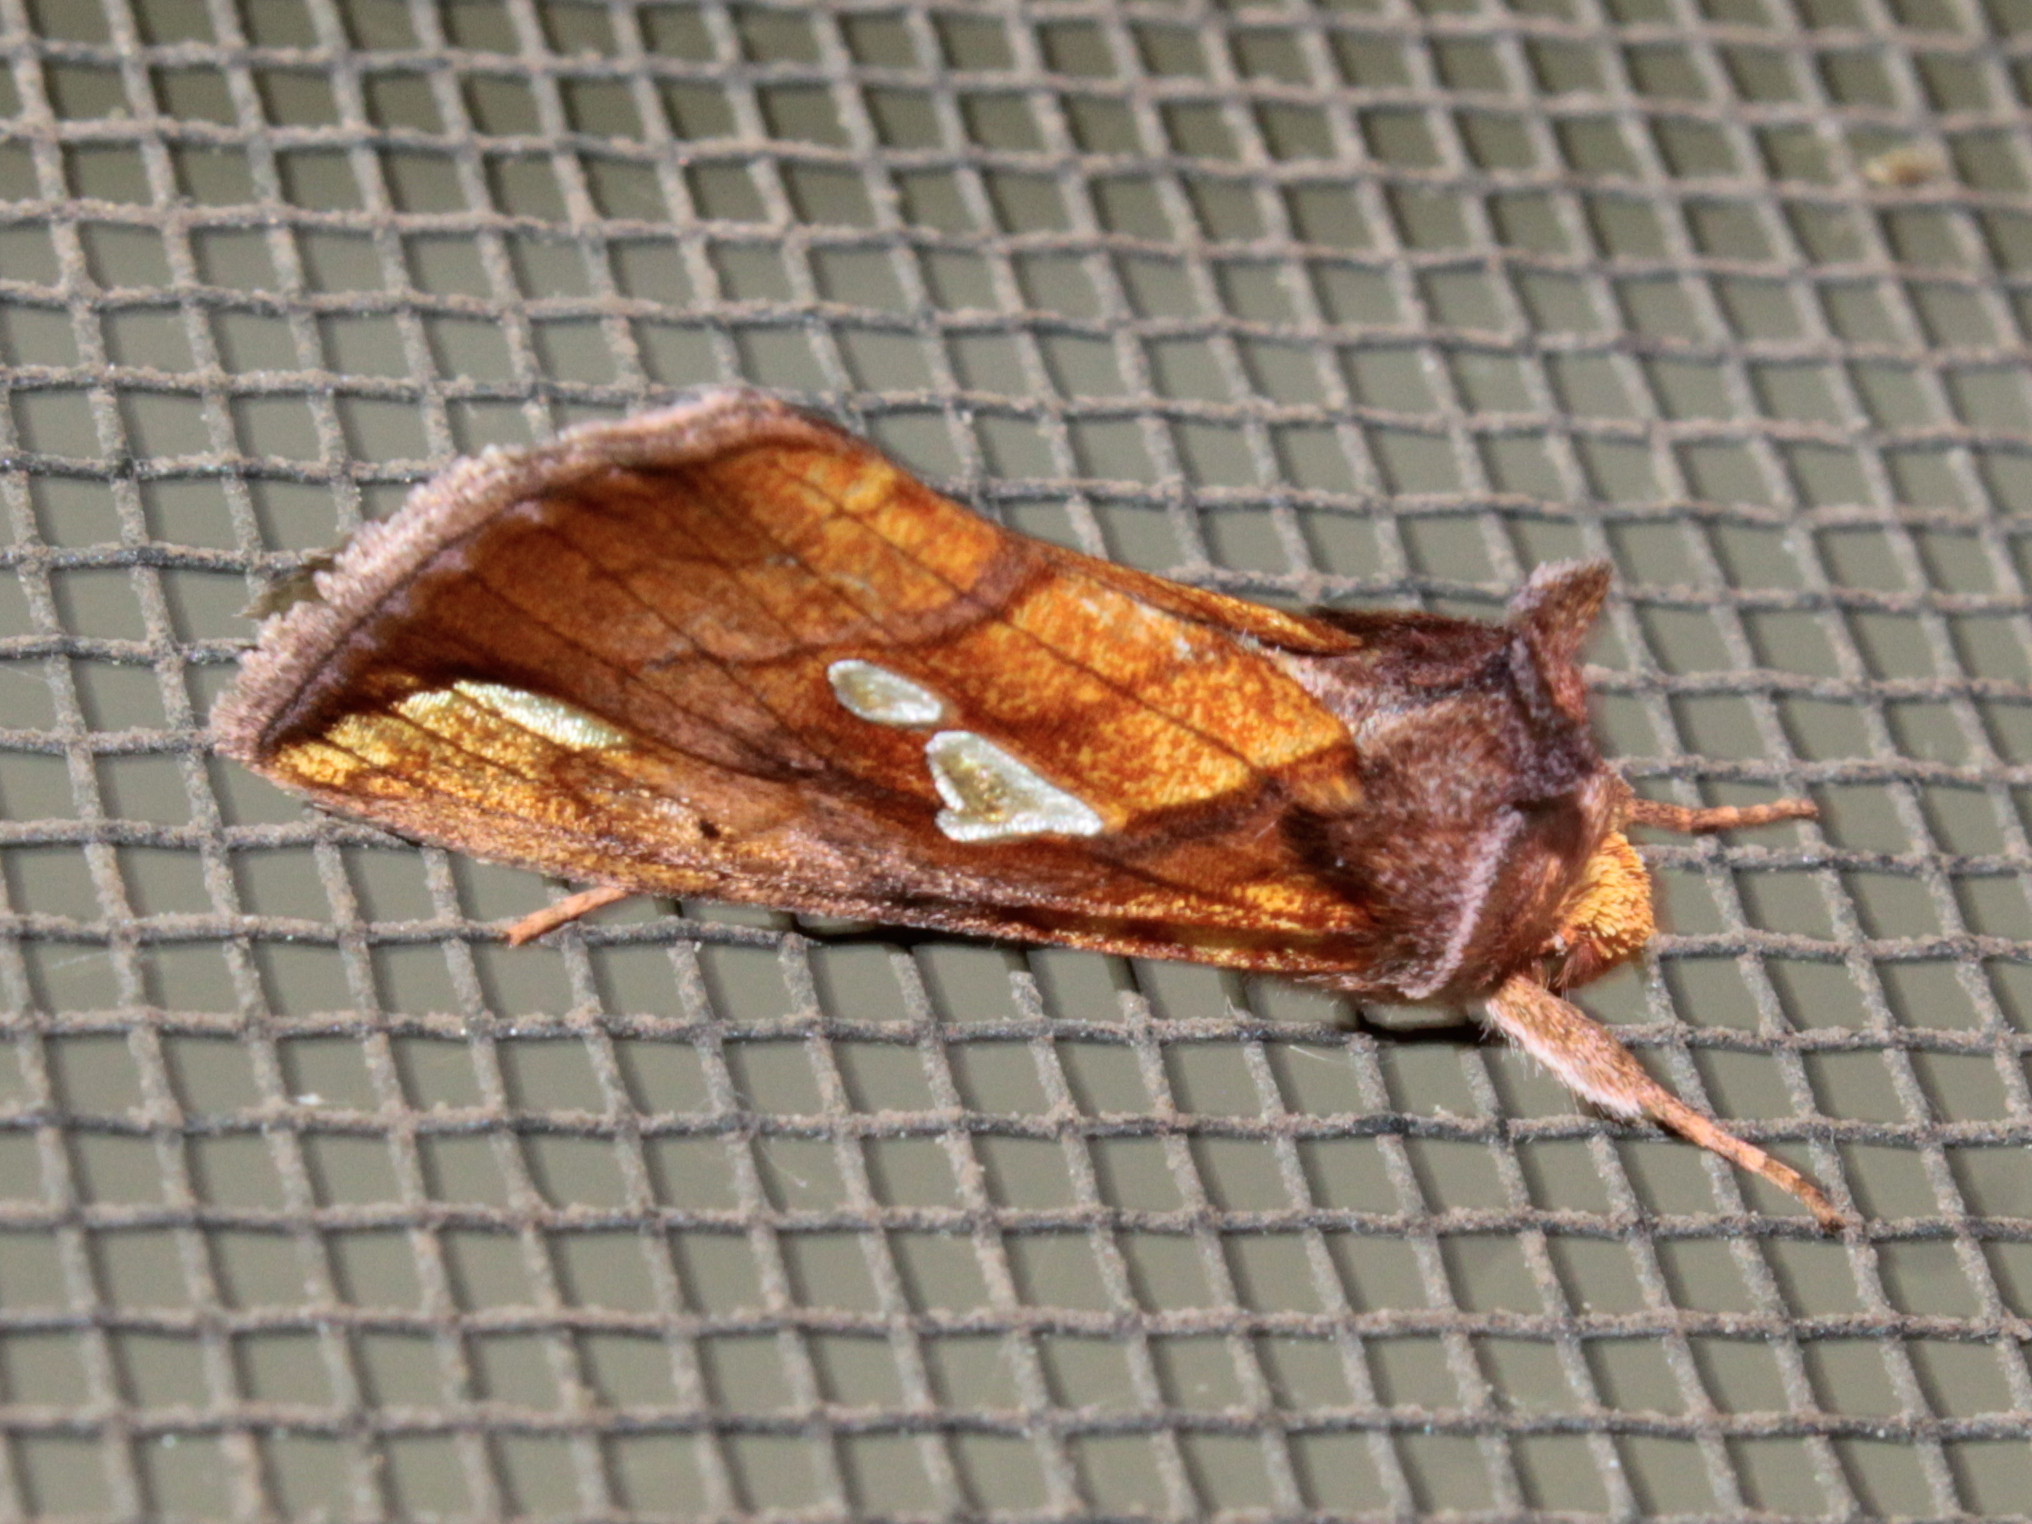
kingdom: Animalia
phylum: Arthropoda
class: Insecta
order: Lepidoptera
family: Noctuidae
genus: Plusia
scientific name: Plusia putnami
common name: Lempke's gold spot
